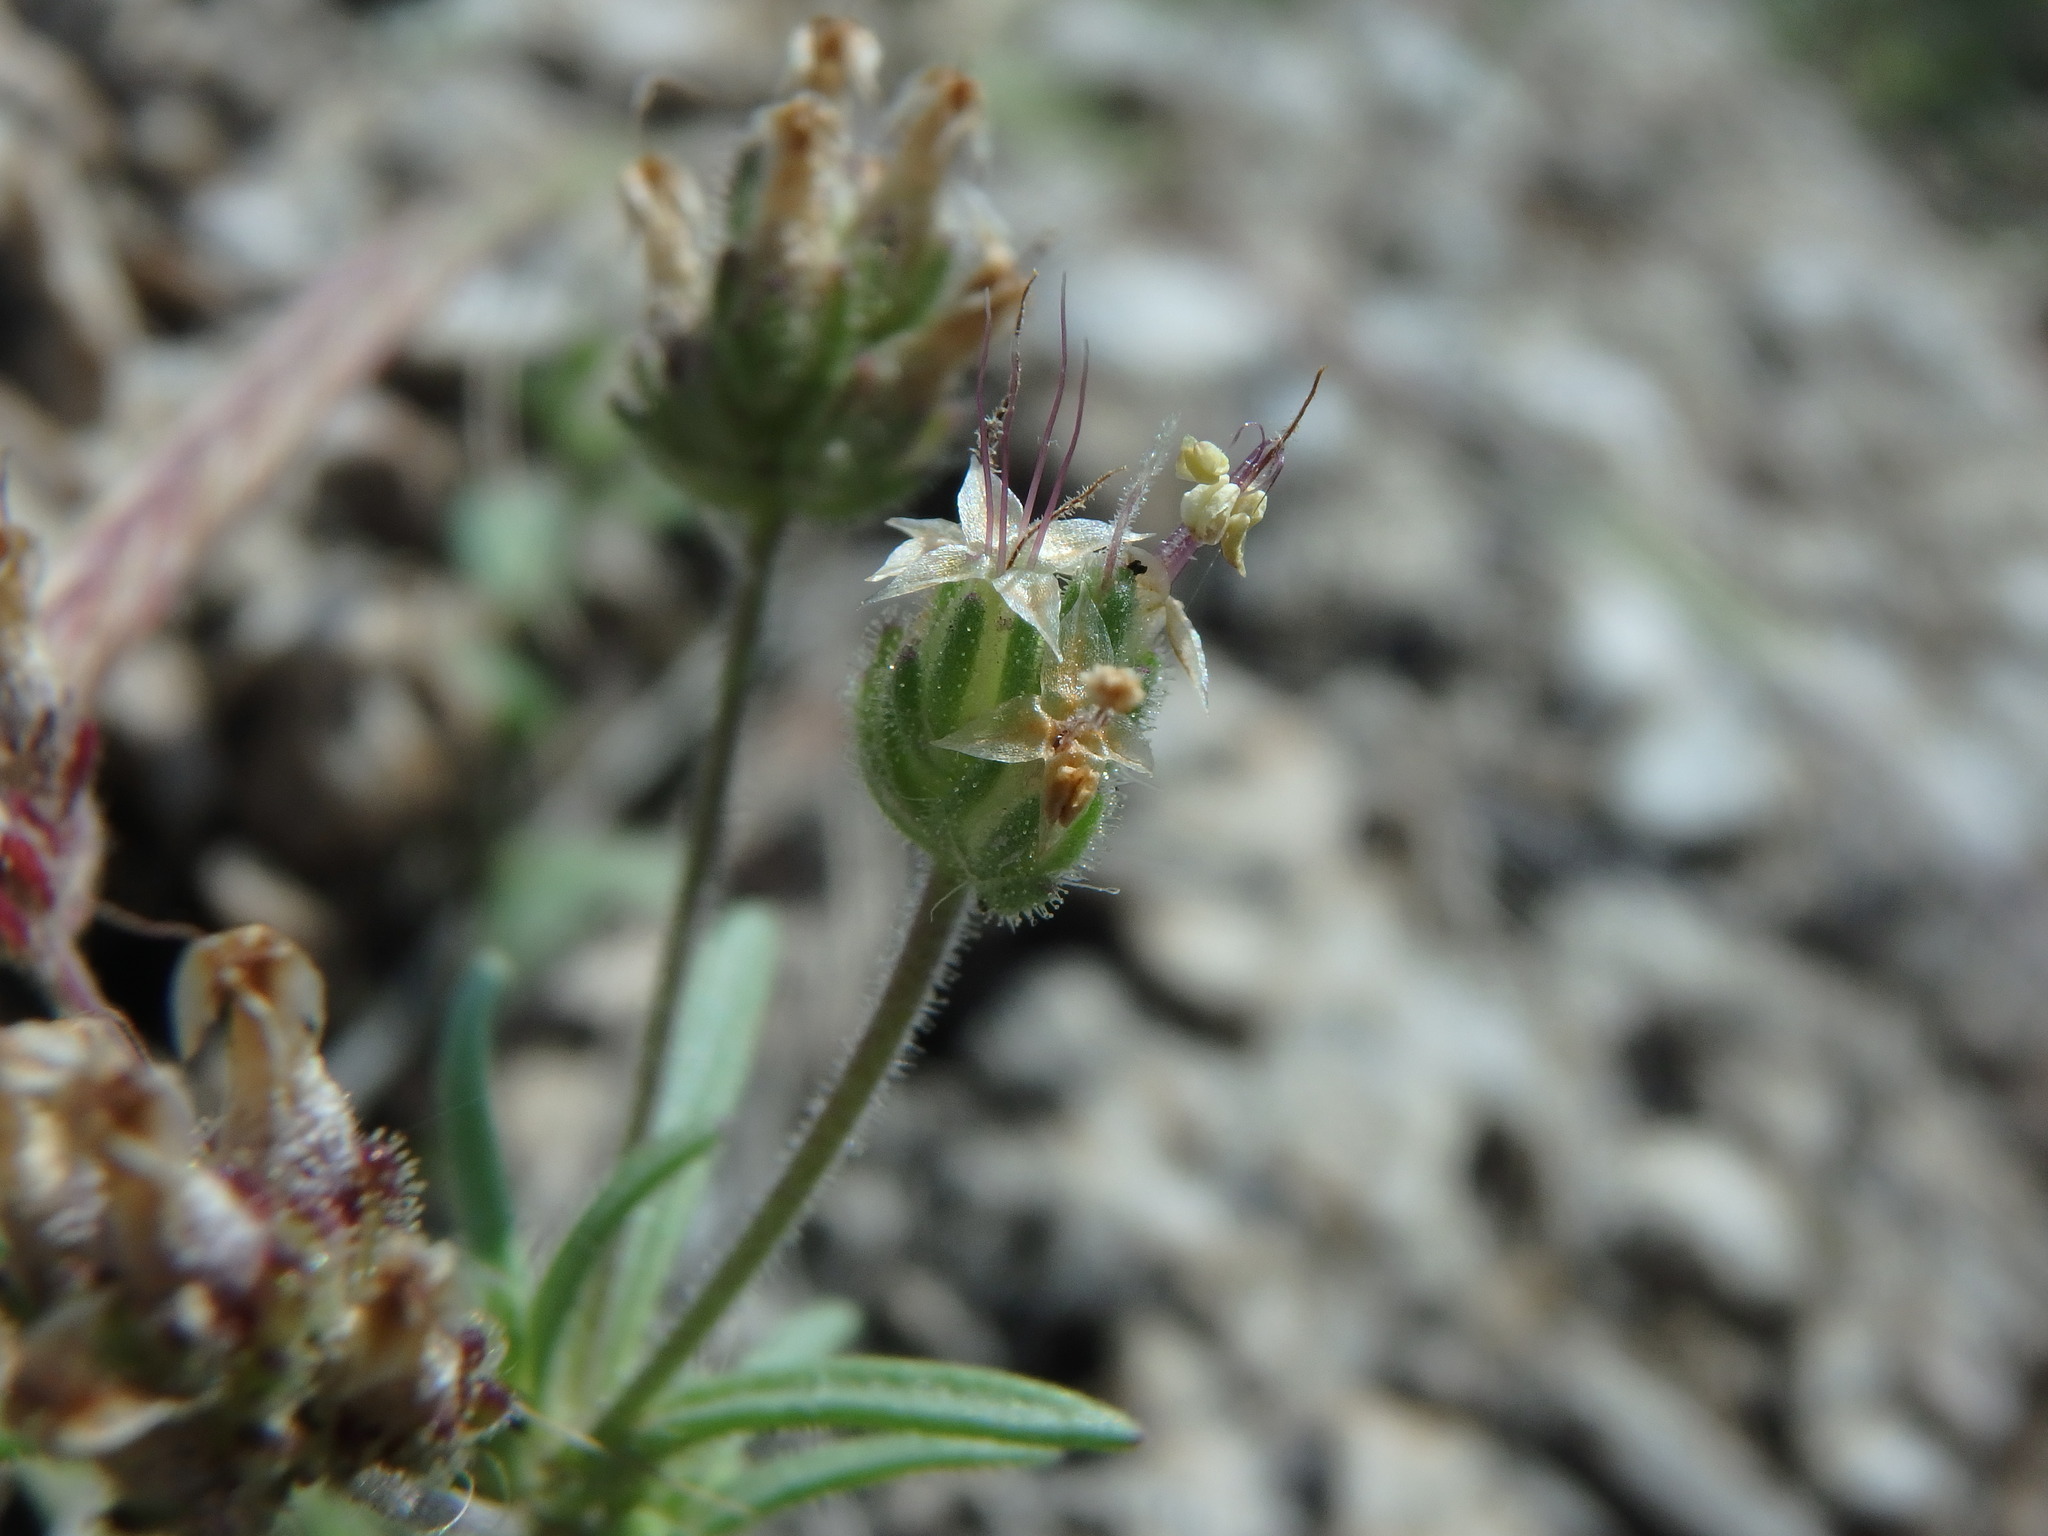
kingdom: Plantae
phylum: Tracheophyta
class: Magnoliopsida
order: Lamiales
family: Plantaginaceae
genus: Plantago
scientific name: Plantago afra
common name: Glandular plantain
